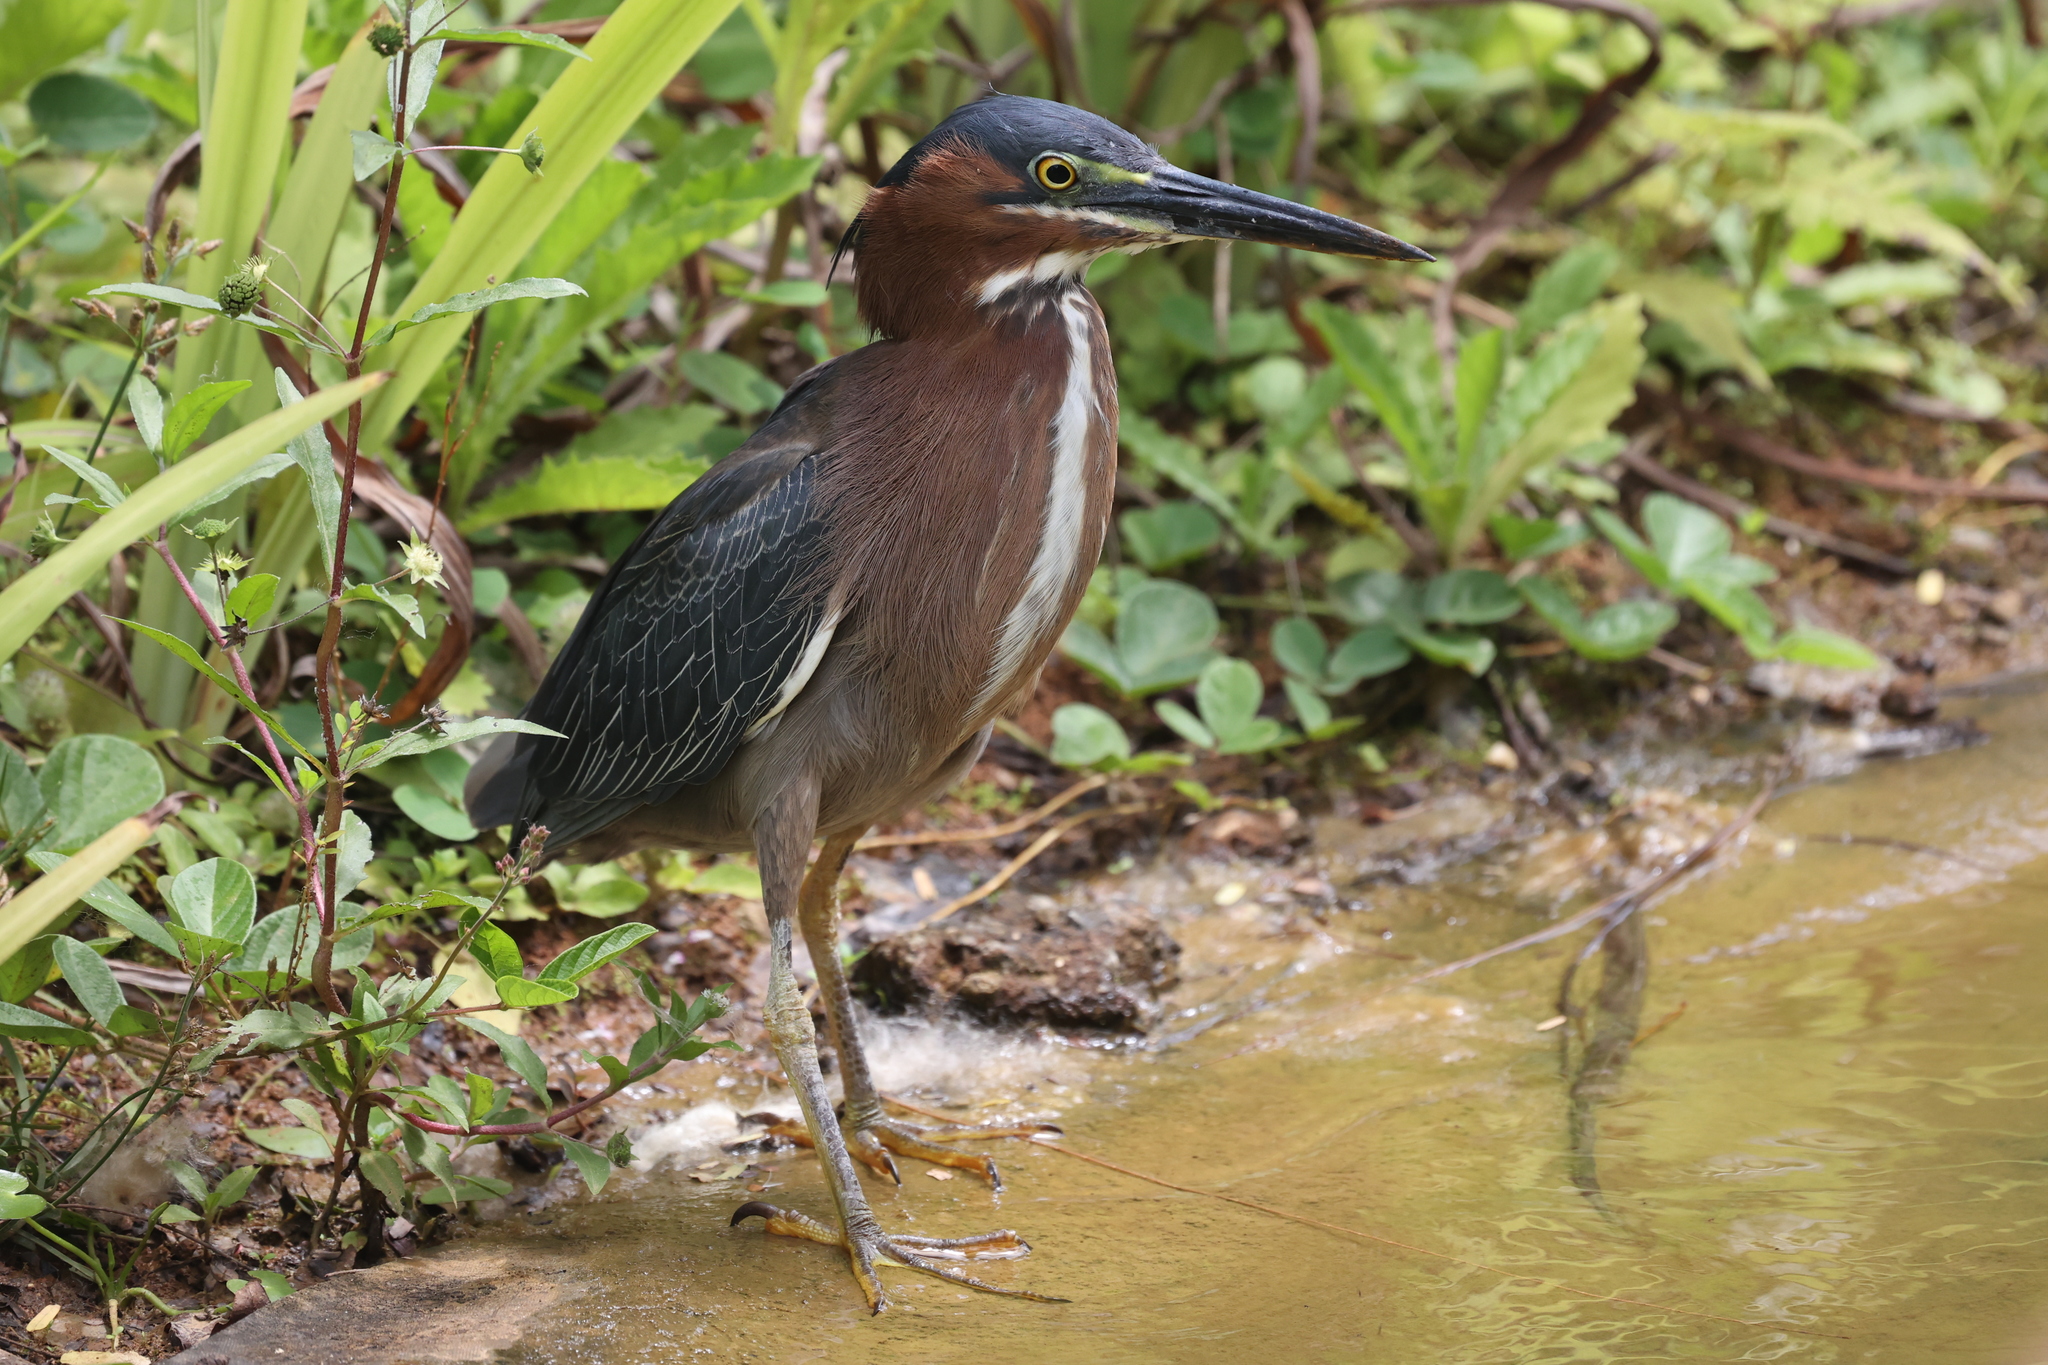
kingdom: Animalia
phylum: Chordata
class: Aves
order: Pelecaniformes
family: Ardeidae
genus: Butorides
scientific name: Butorides virescens
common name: Green heron
